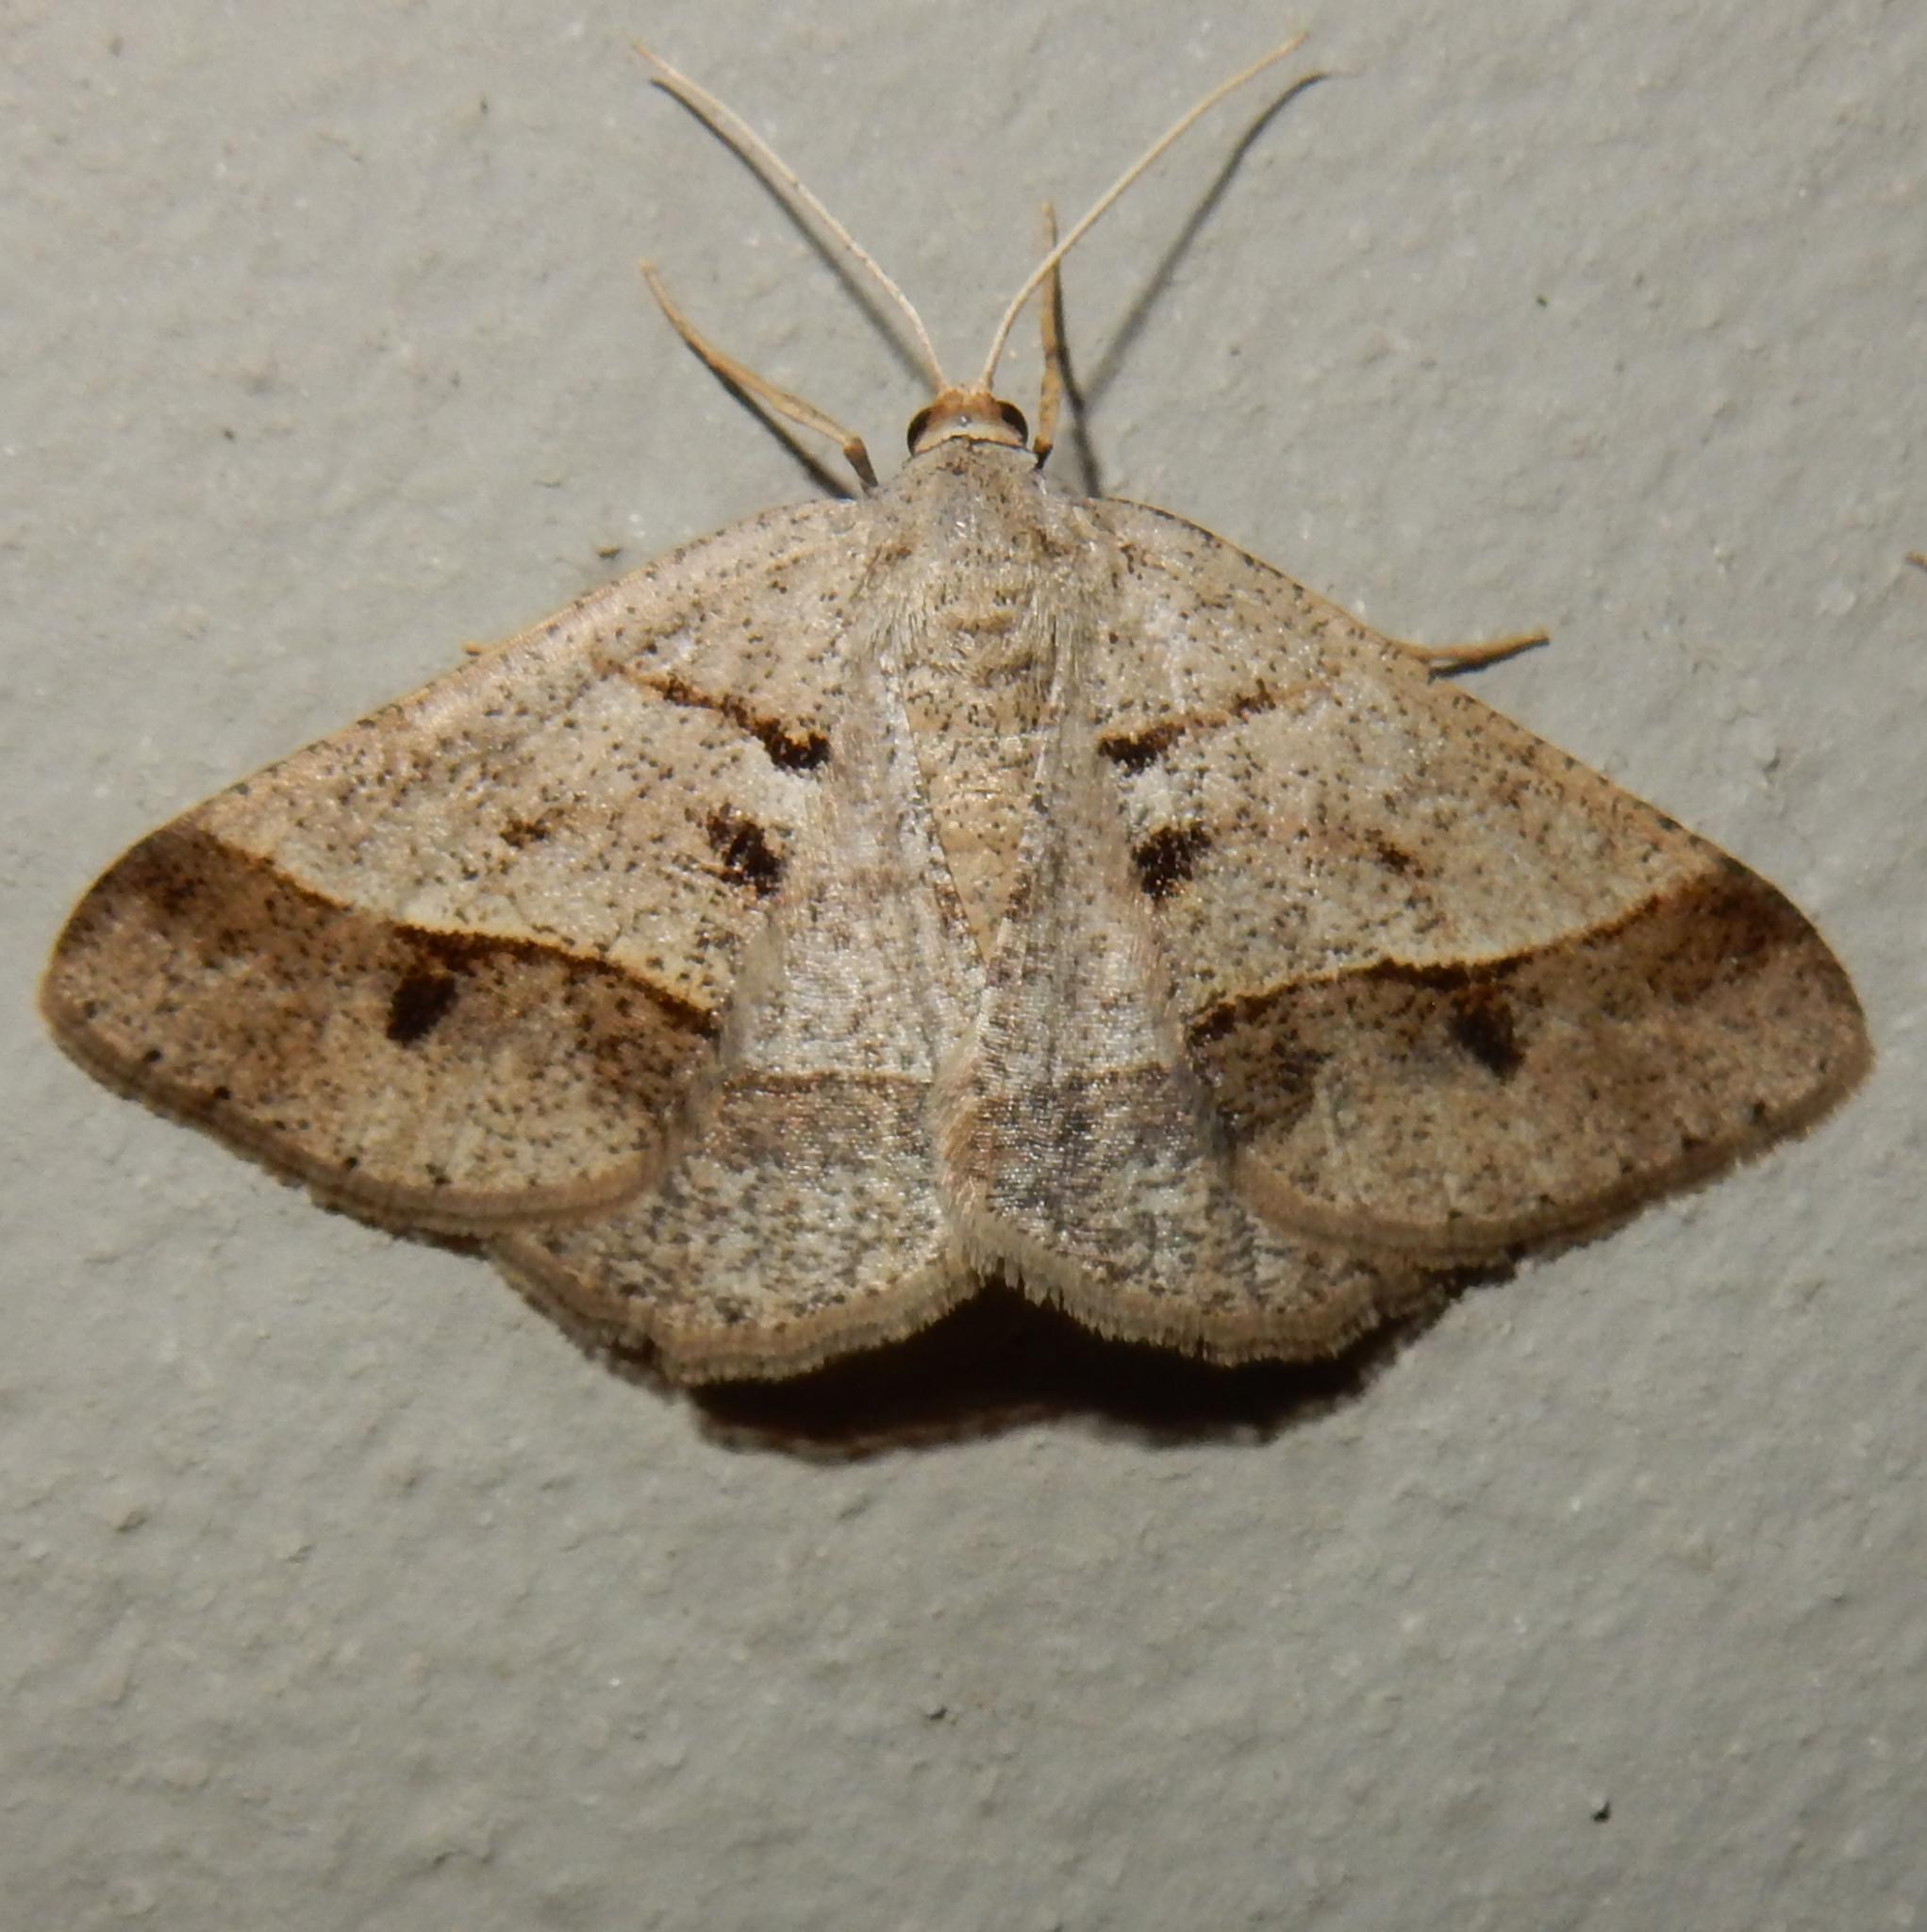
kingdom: Animalia
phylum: Arthropoda
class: Insecta
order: Lepidoptera
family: Geometridae
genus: Isturgia
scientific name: Isturgia spissata
